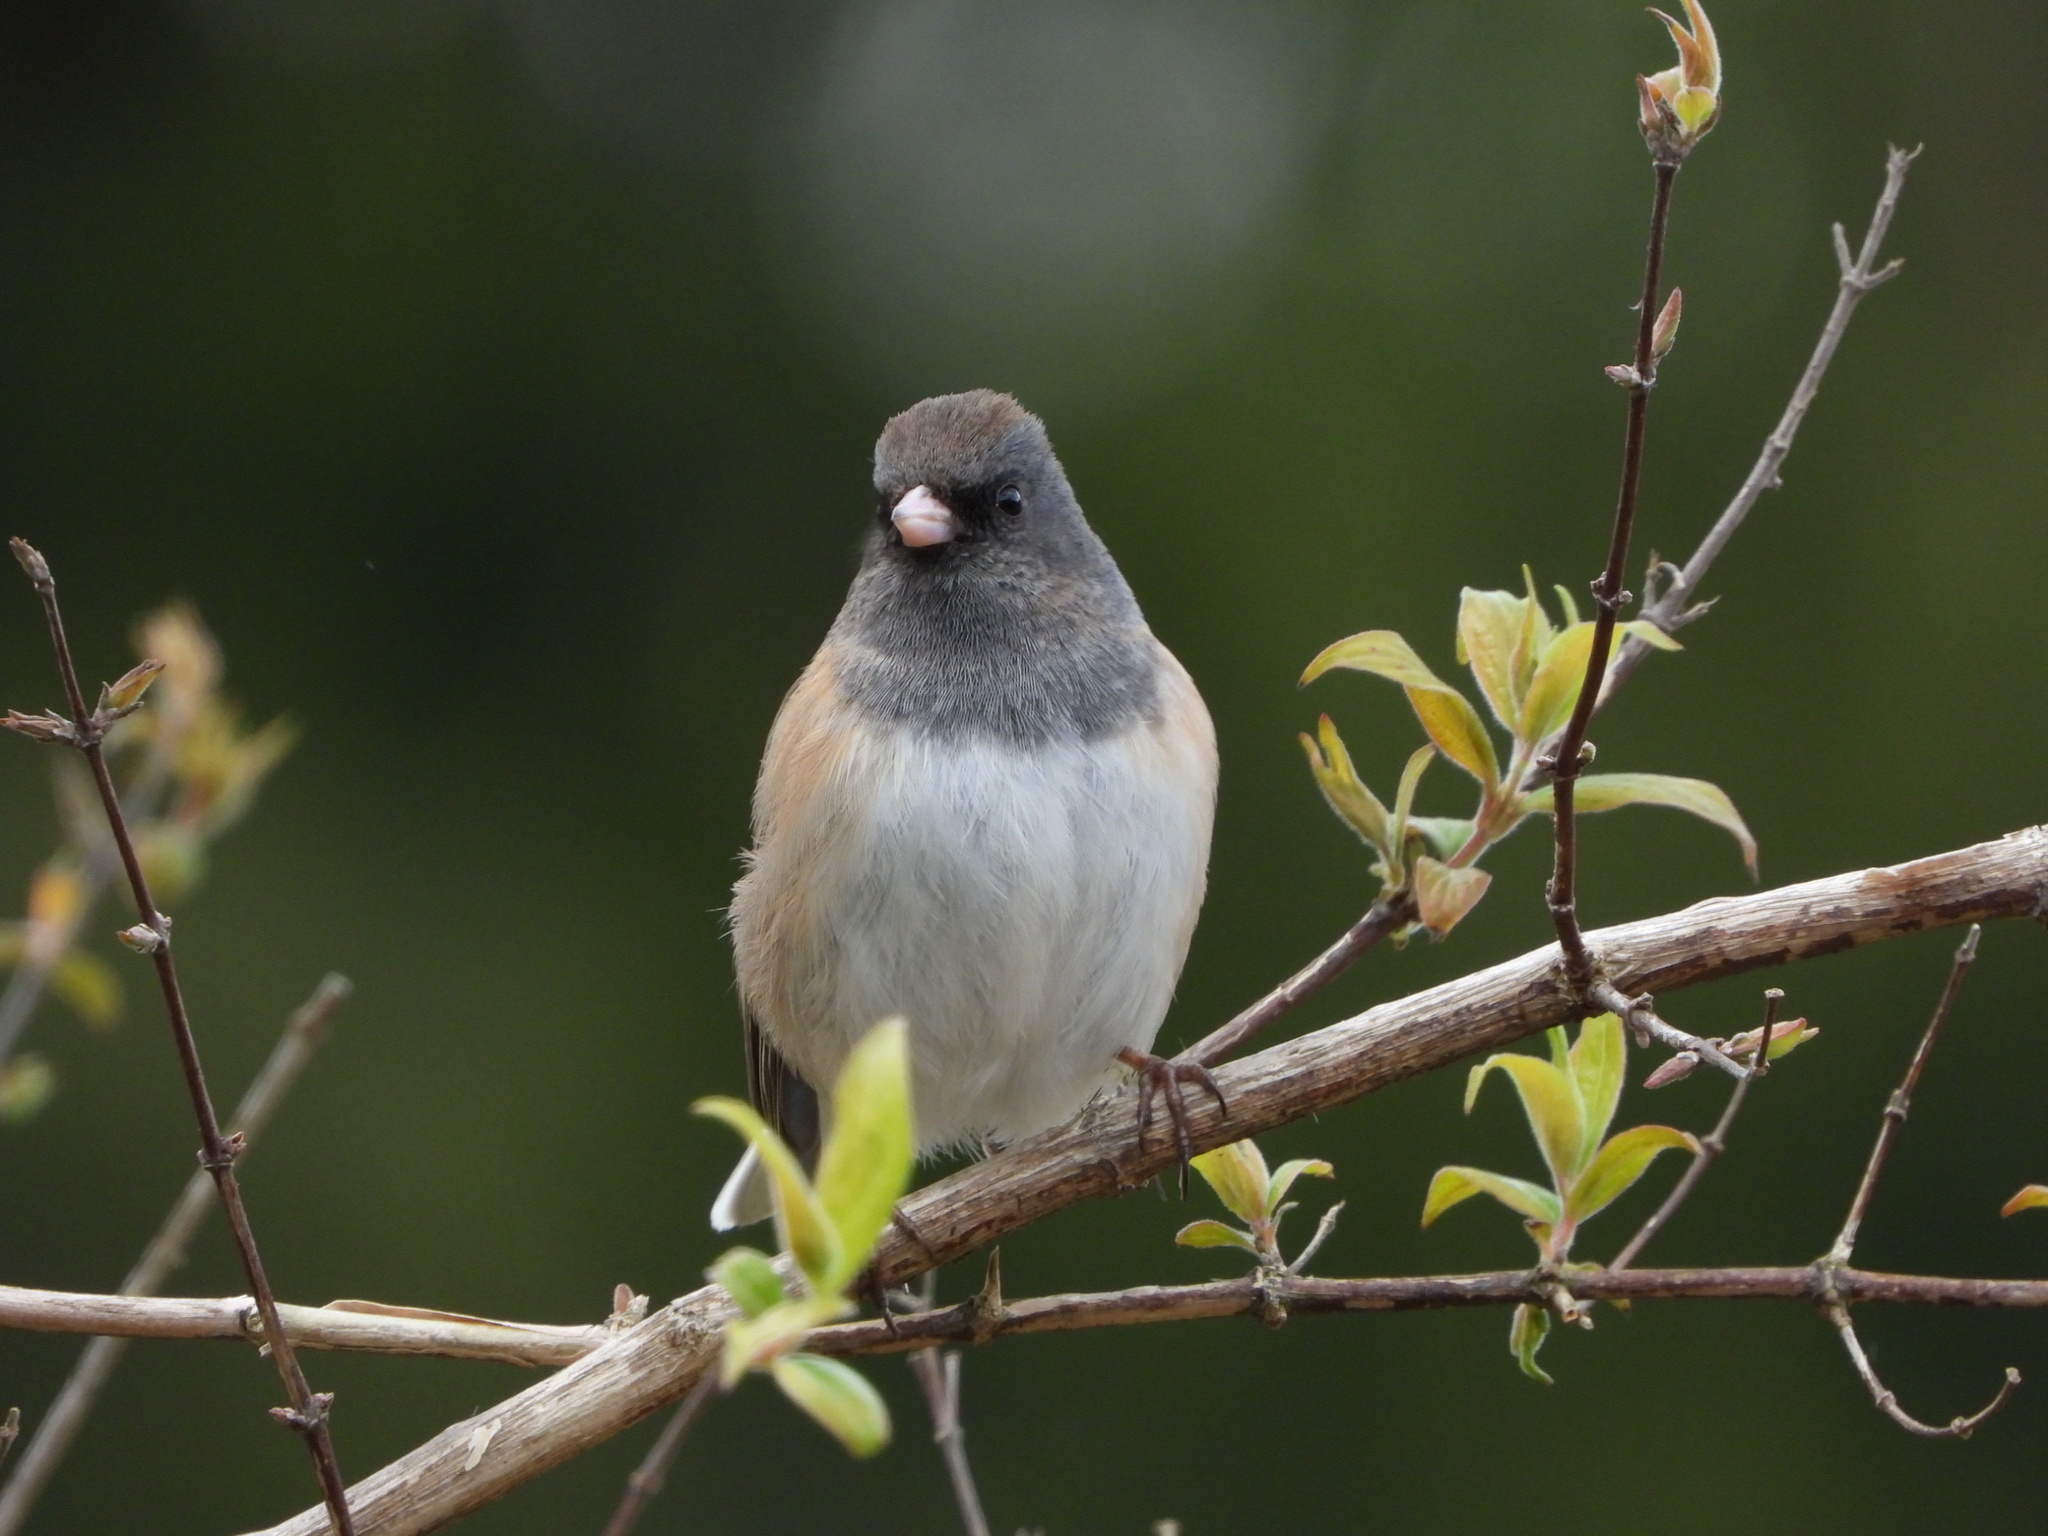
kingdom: Animalia
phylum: Chordata
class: Aves
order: Passeriformes
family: Passerellidae
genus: Junco
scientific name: Junco hyemalis
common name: Dark-eyed junco
